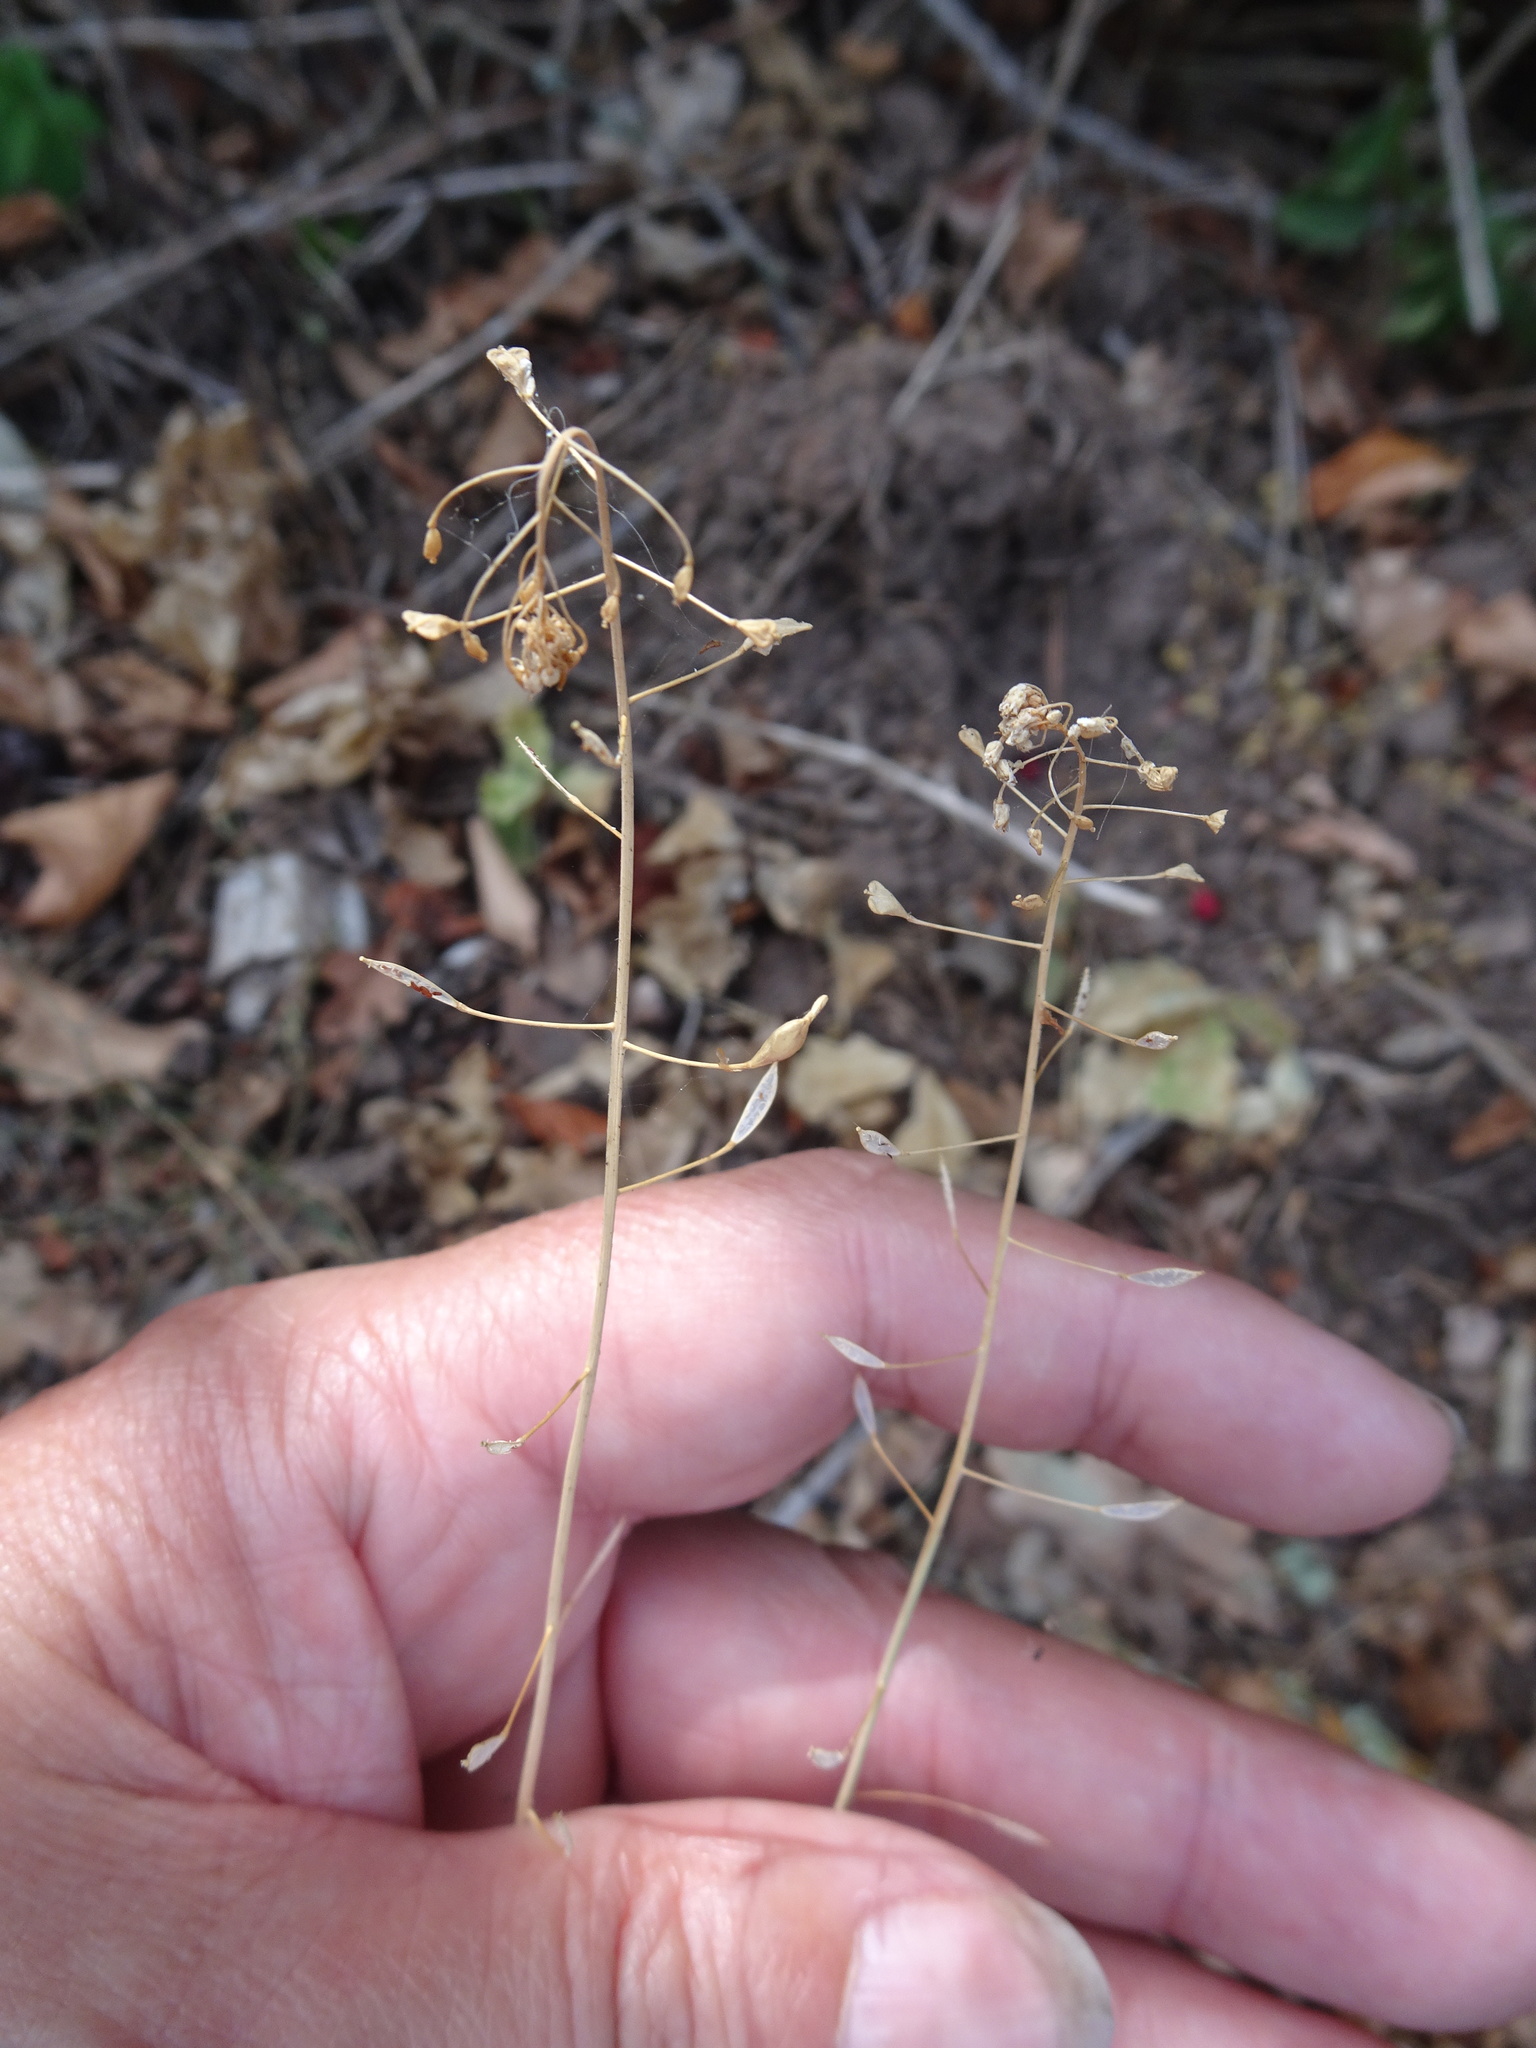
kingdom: Plantae
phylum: Tracheophyta
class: Magnoliopsida
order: Brassicales
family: Brassicaceae
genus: Capsella
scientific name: Capsella bursa-pastoris
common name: Shepherd's purse
